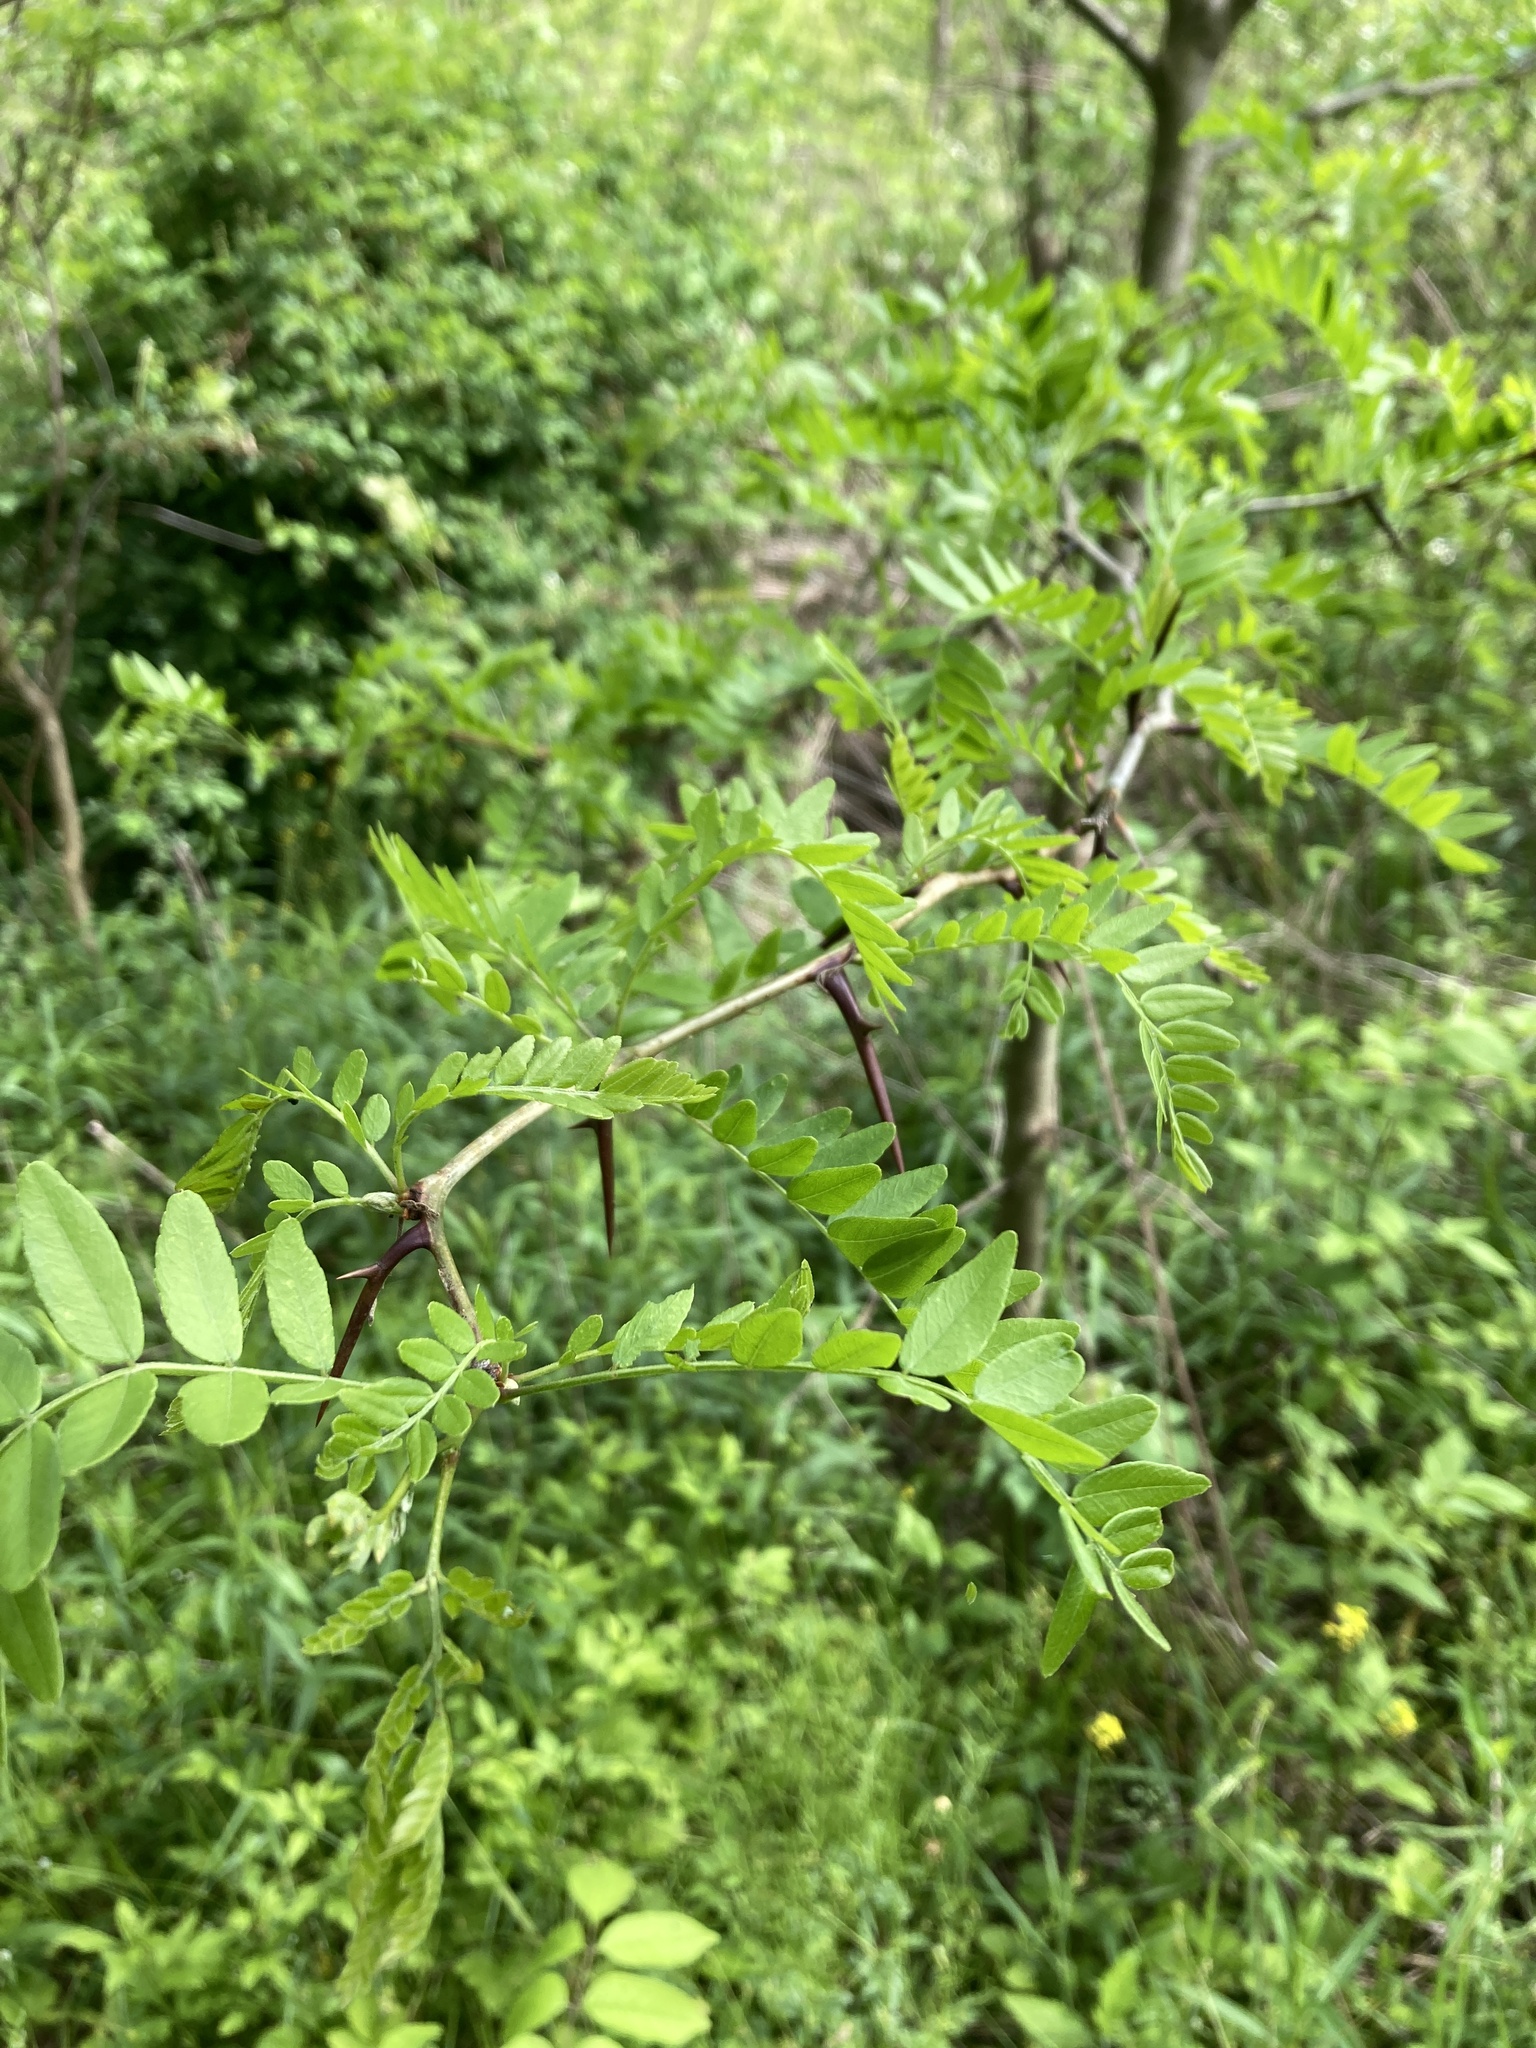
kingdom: Plantae
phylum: Tracheophyta
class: Magnoliopsida
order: Fabales
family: Fabaceae
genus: Gleditsia
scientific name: Gleditsia triacanthos
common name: Common honeylocust
